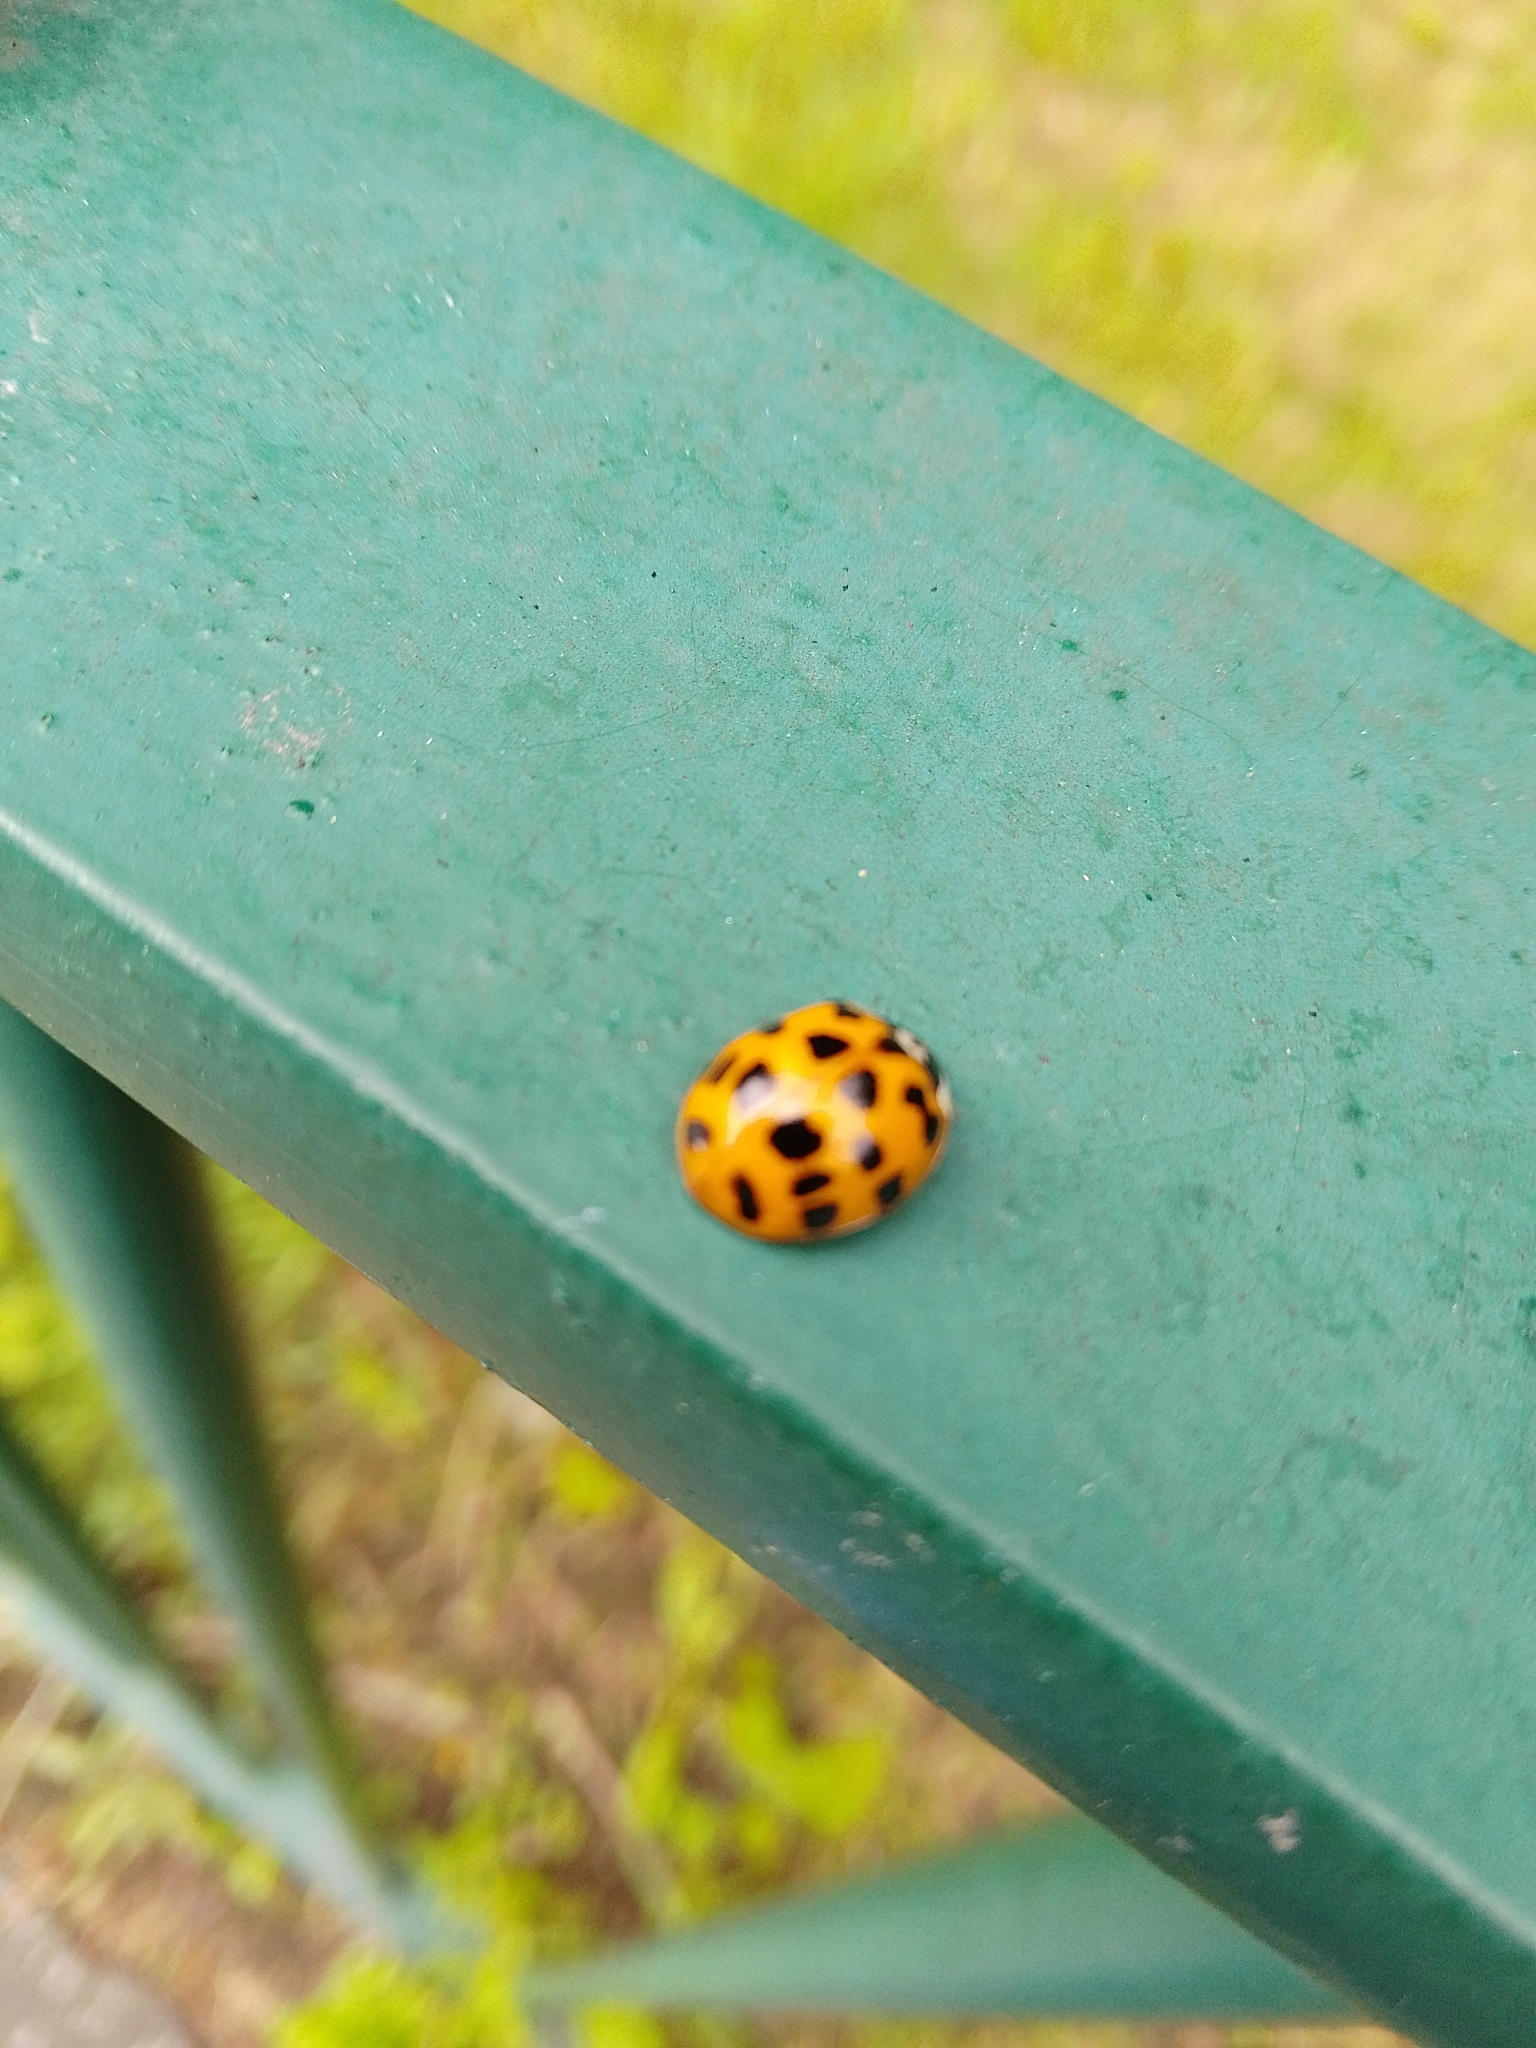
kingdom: Animalia
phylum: Arthropoda
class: Insecta
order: Coleoptera
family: Coccinellidae
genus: Harmonia
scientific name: Harmonia axyridis
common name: Harlequin ladybird
